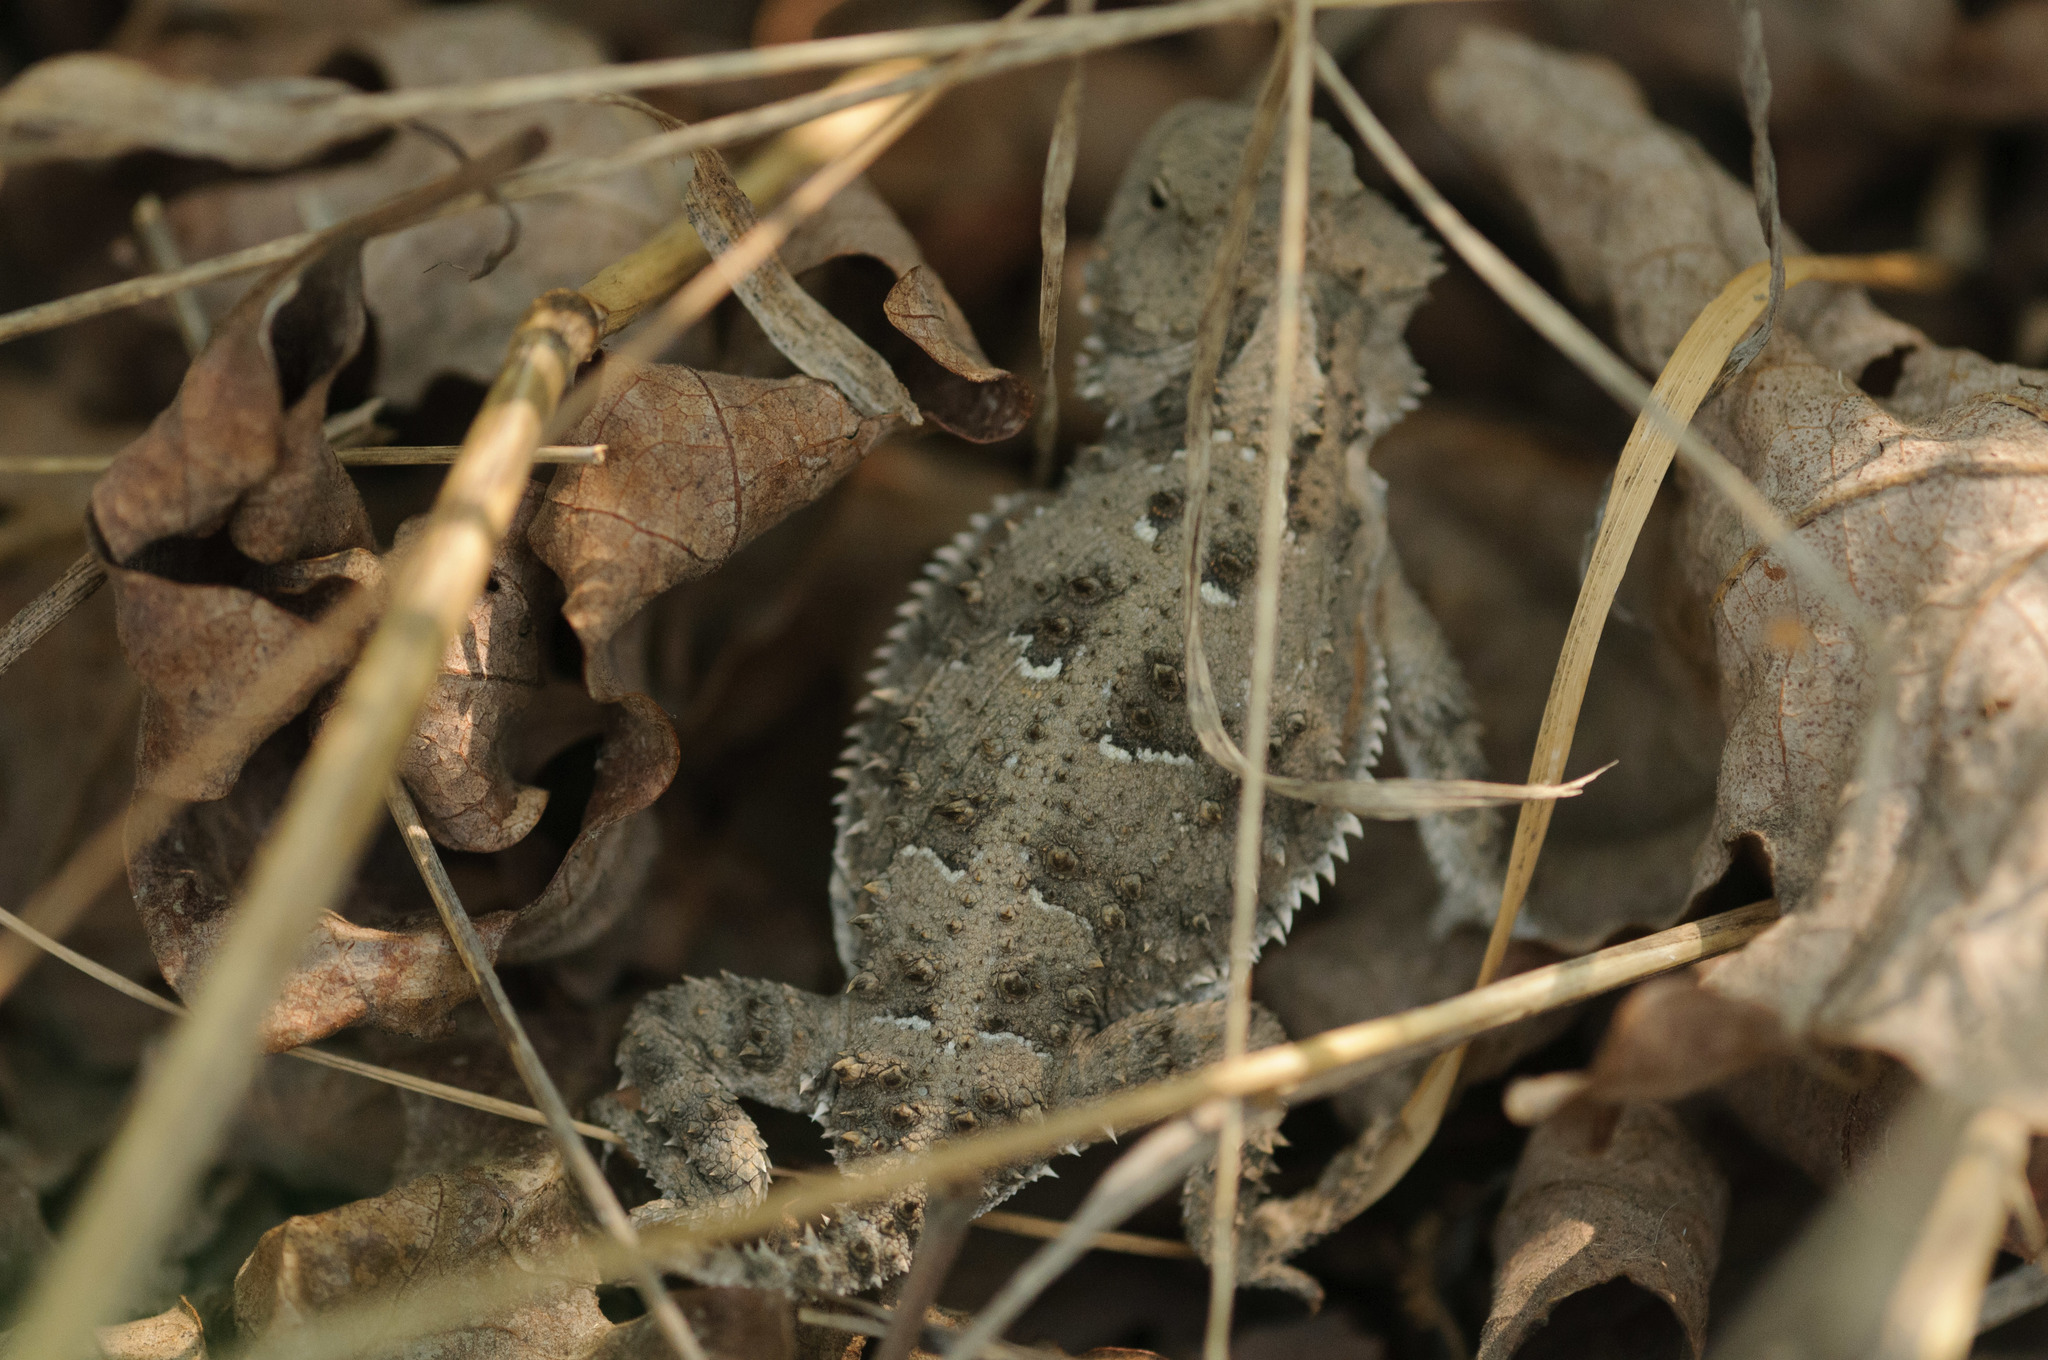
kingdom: Animalia
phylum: Chordata
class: Squamata
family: Phrynosomatidae
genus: Phrynosoma
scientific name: Phrynosoma hernandesi
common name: Greater short-horned lizard
